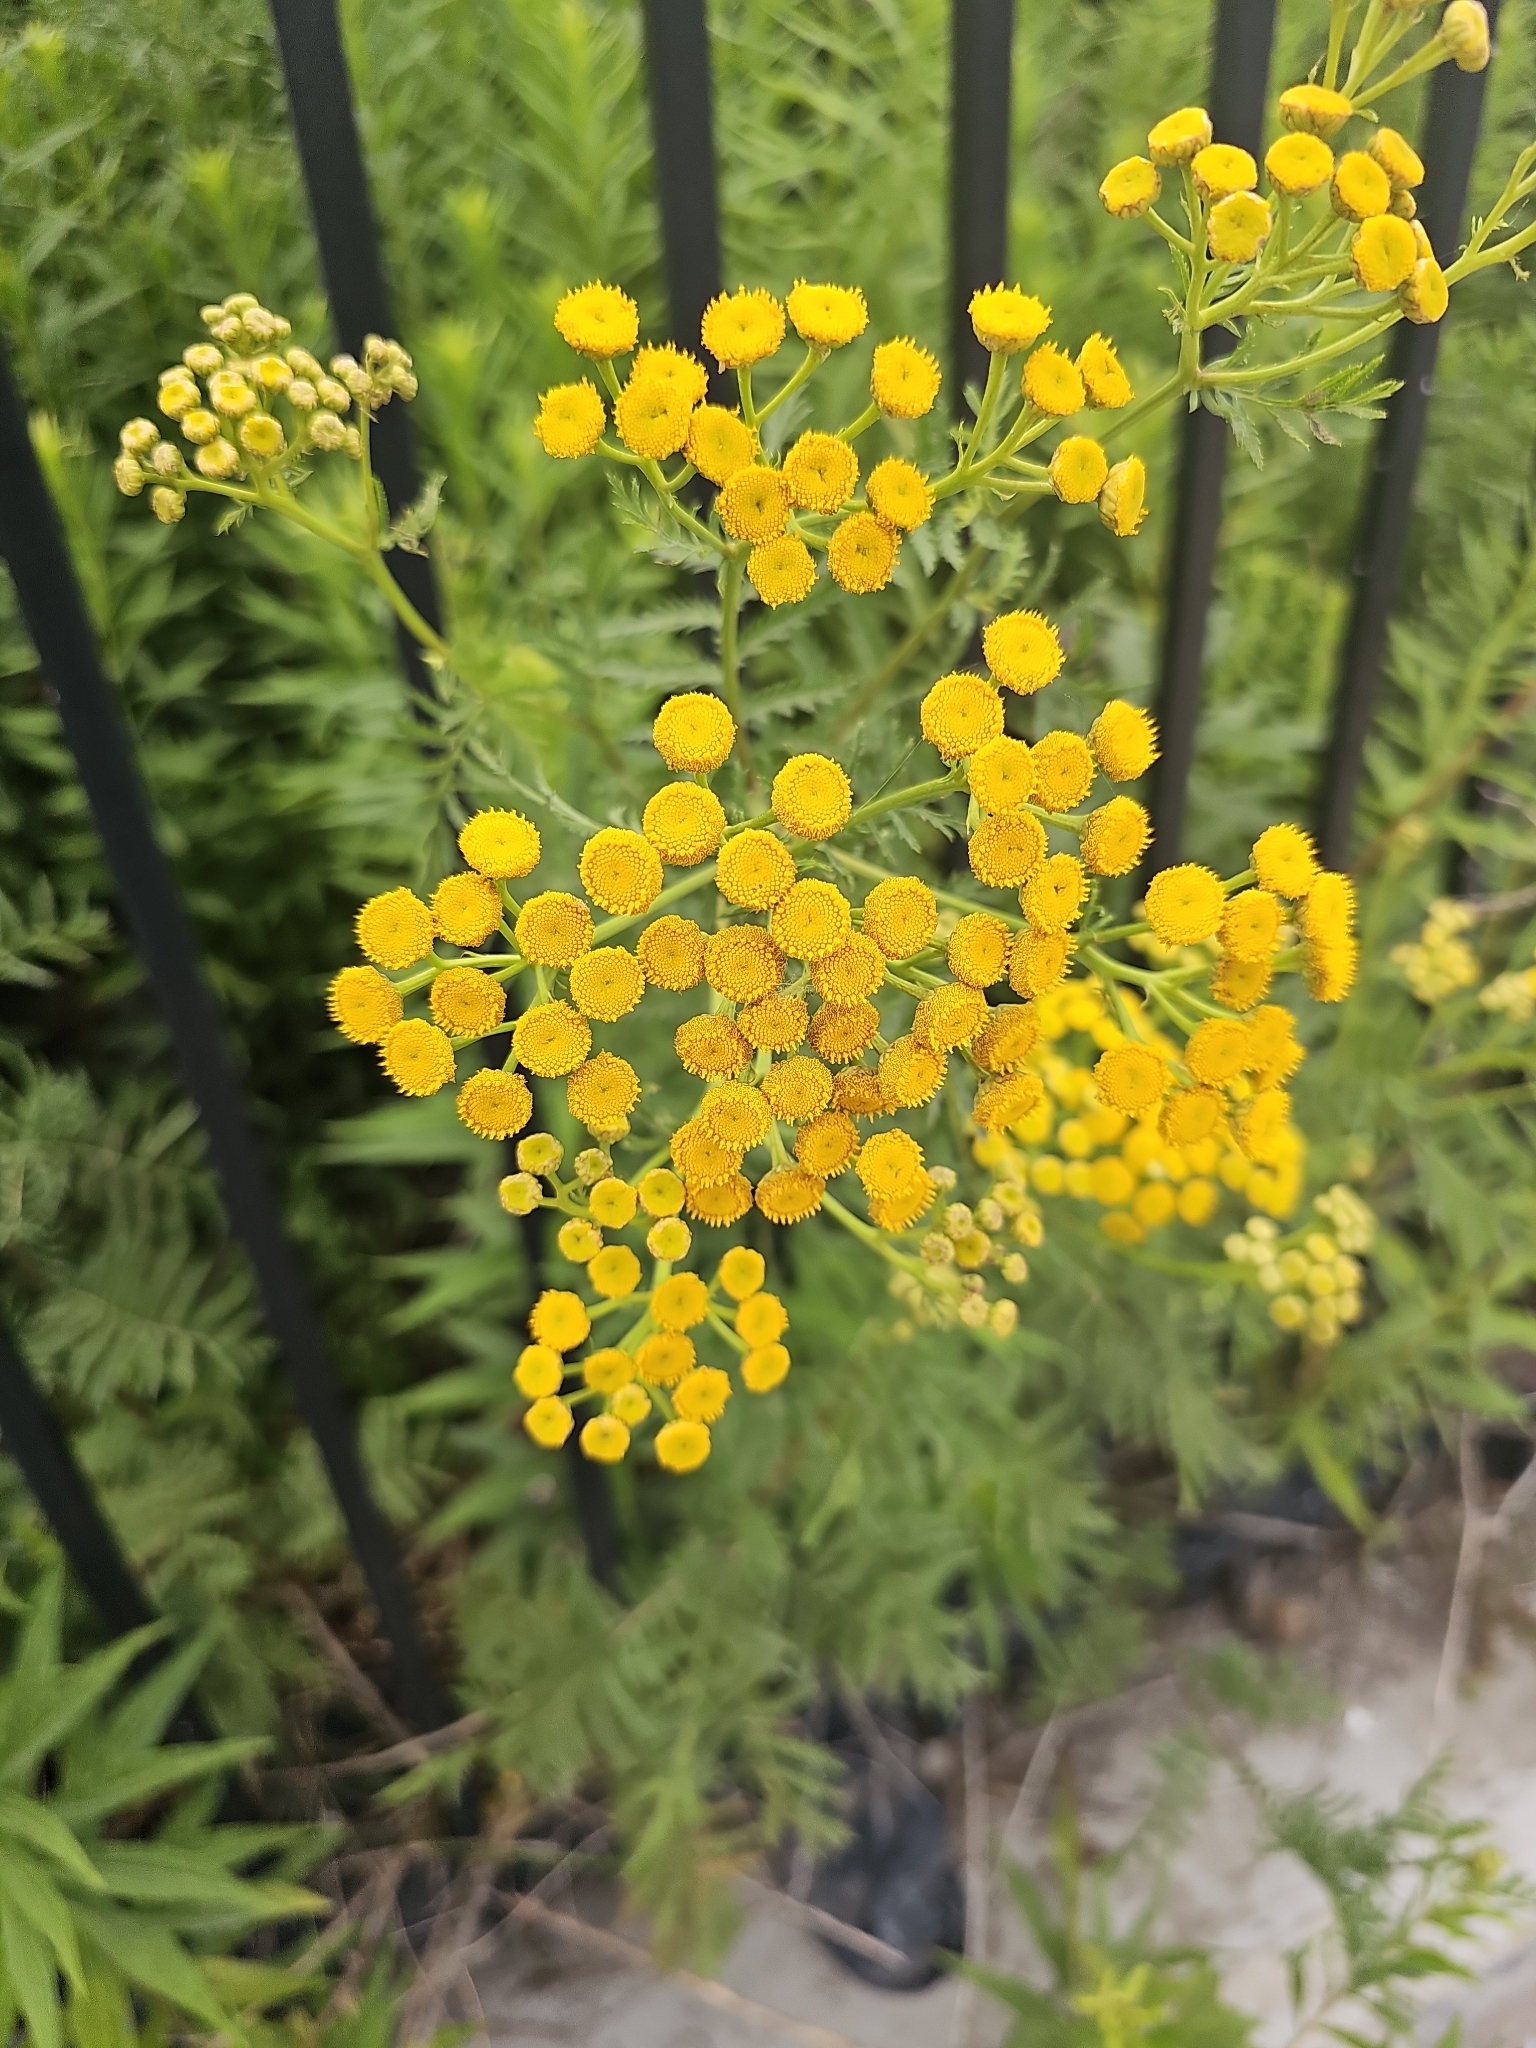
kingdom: Plantae
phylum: Tracheophyta
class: Magnoliopsida
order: Asterales
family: Asteraceae
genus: Tanacetum
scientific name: Tanacetum vulgare
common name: Common tansy
